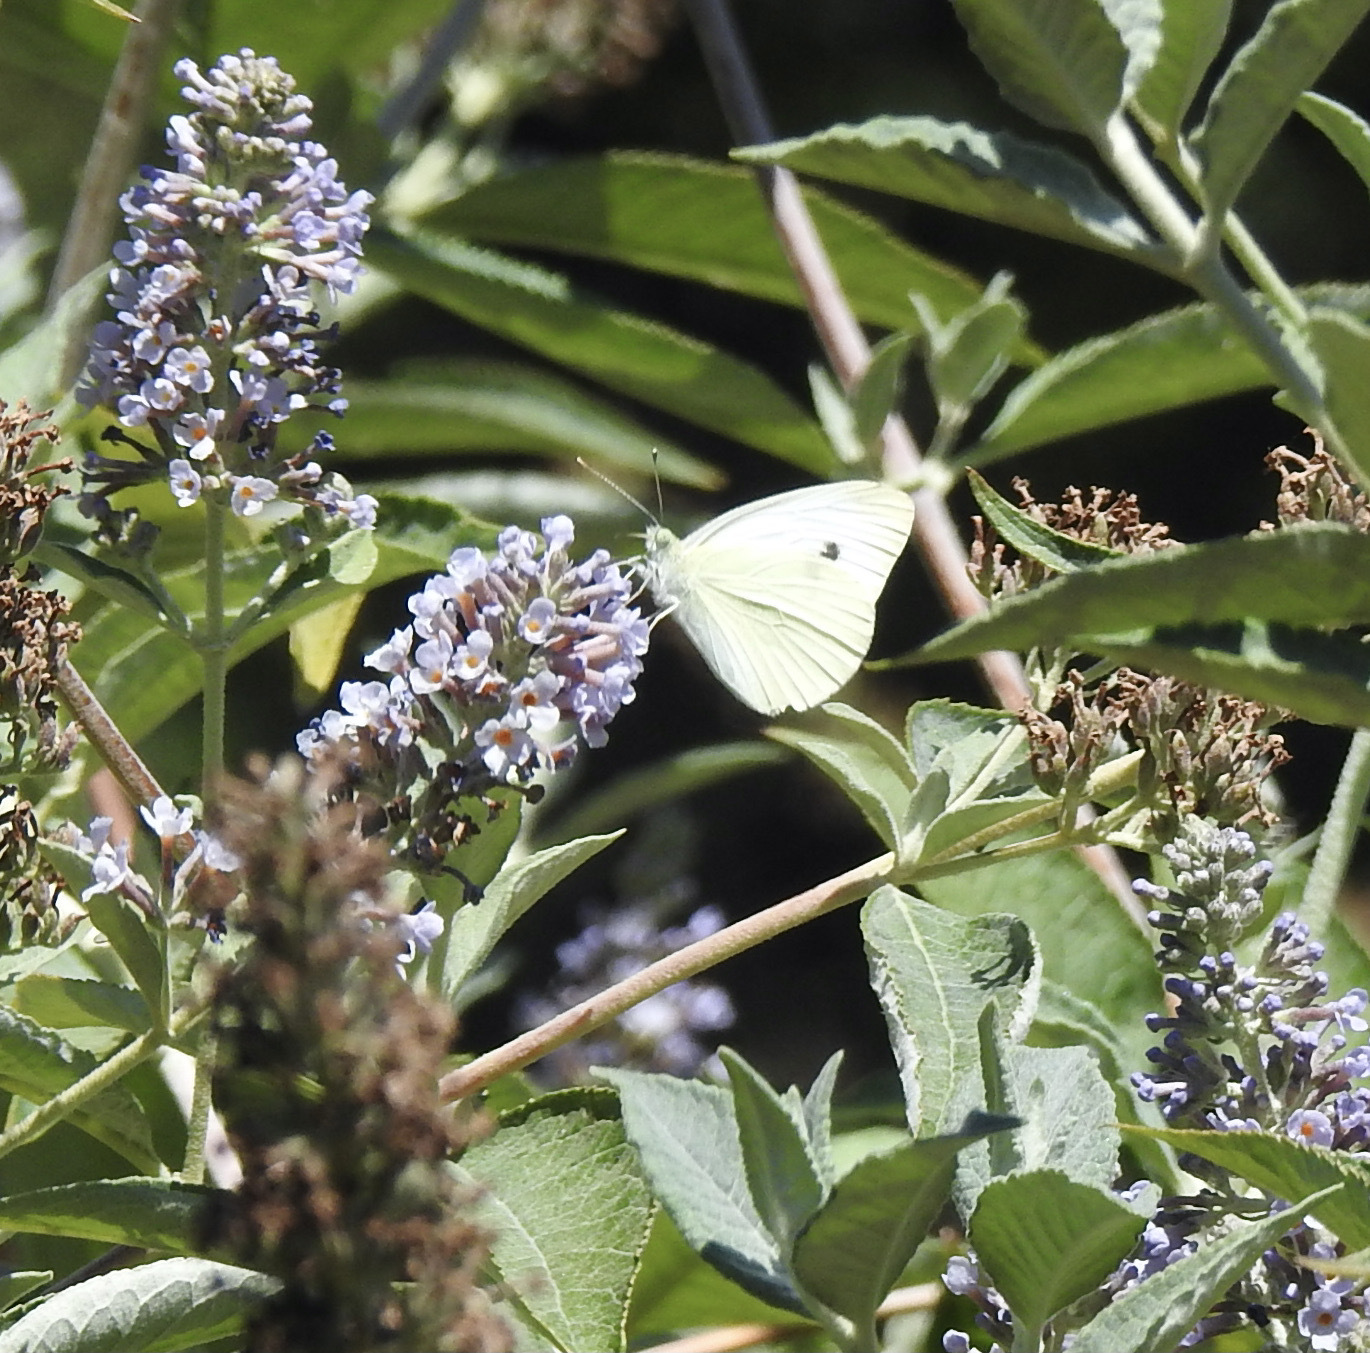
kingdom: Animalia
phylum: Arthropoda
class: Insecta
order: Lepidoptera
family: Pieridae
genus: Pieris
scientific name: Pieris rapae
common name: Small white
